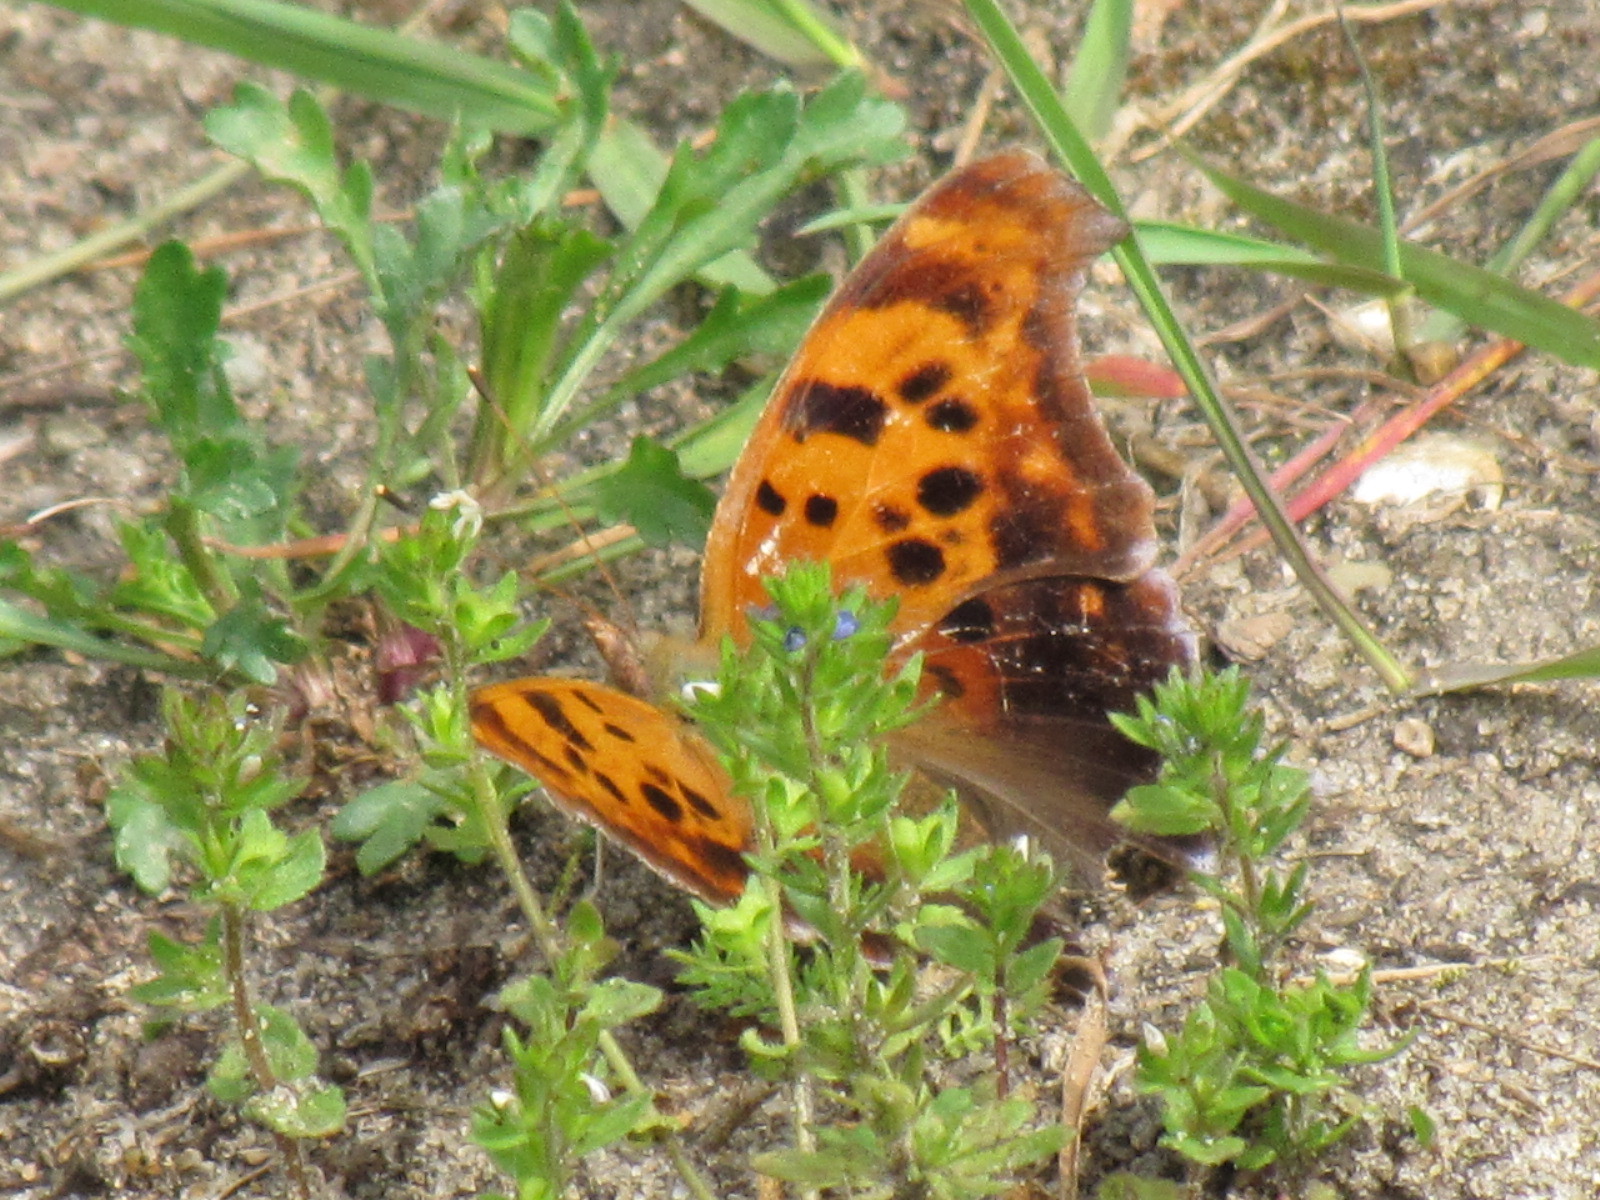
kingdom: Animalia
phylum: Arthropoda
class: Insecta
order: Lepidoptera
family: Nymphalidae
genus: Polygonia
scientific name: Polygonia interrogationis
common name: Question mark
